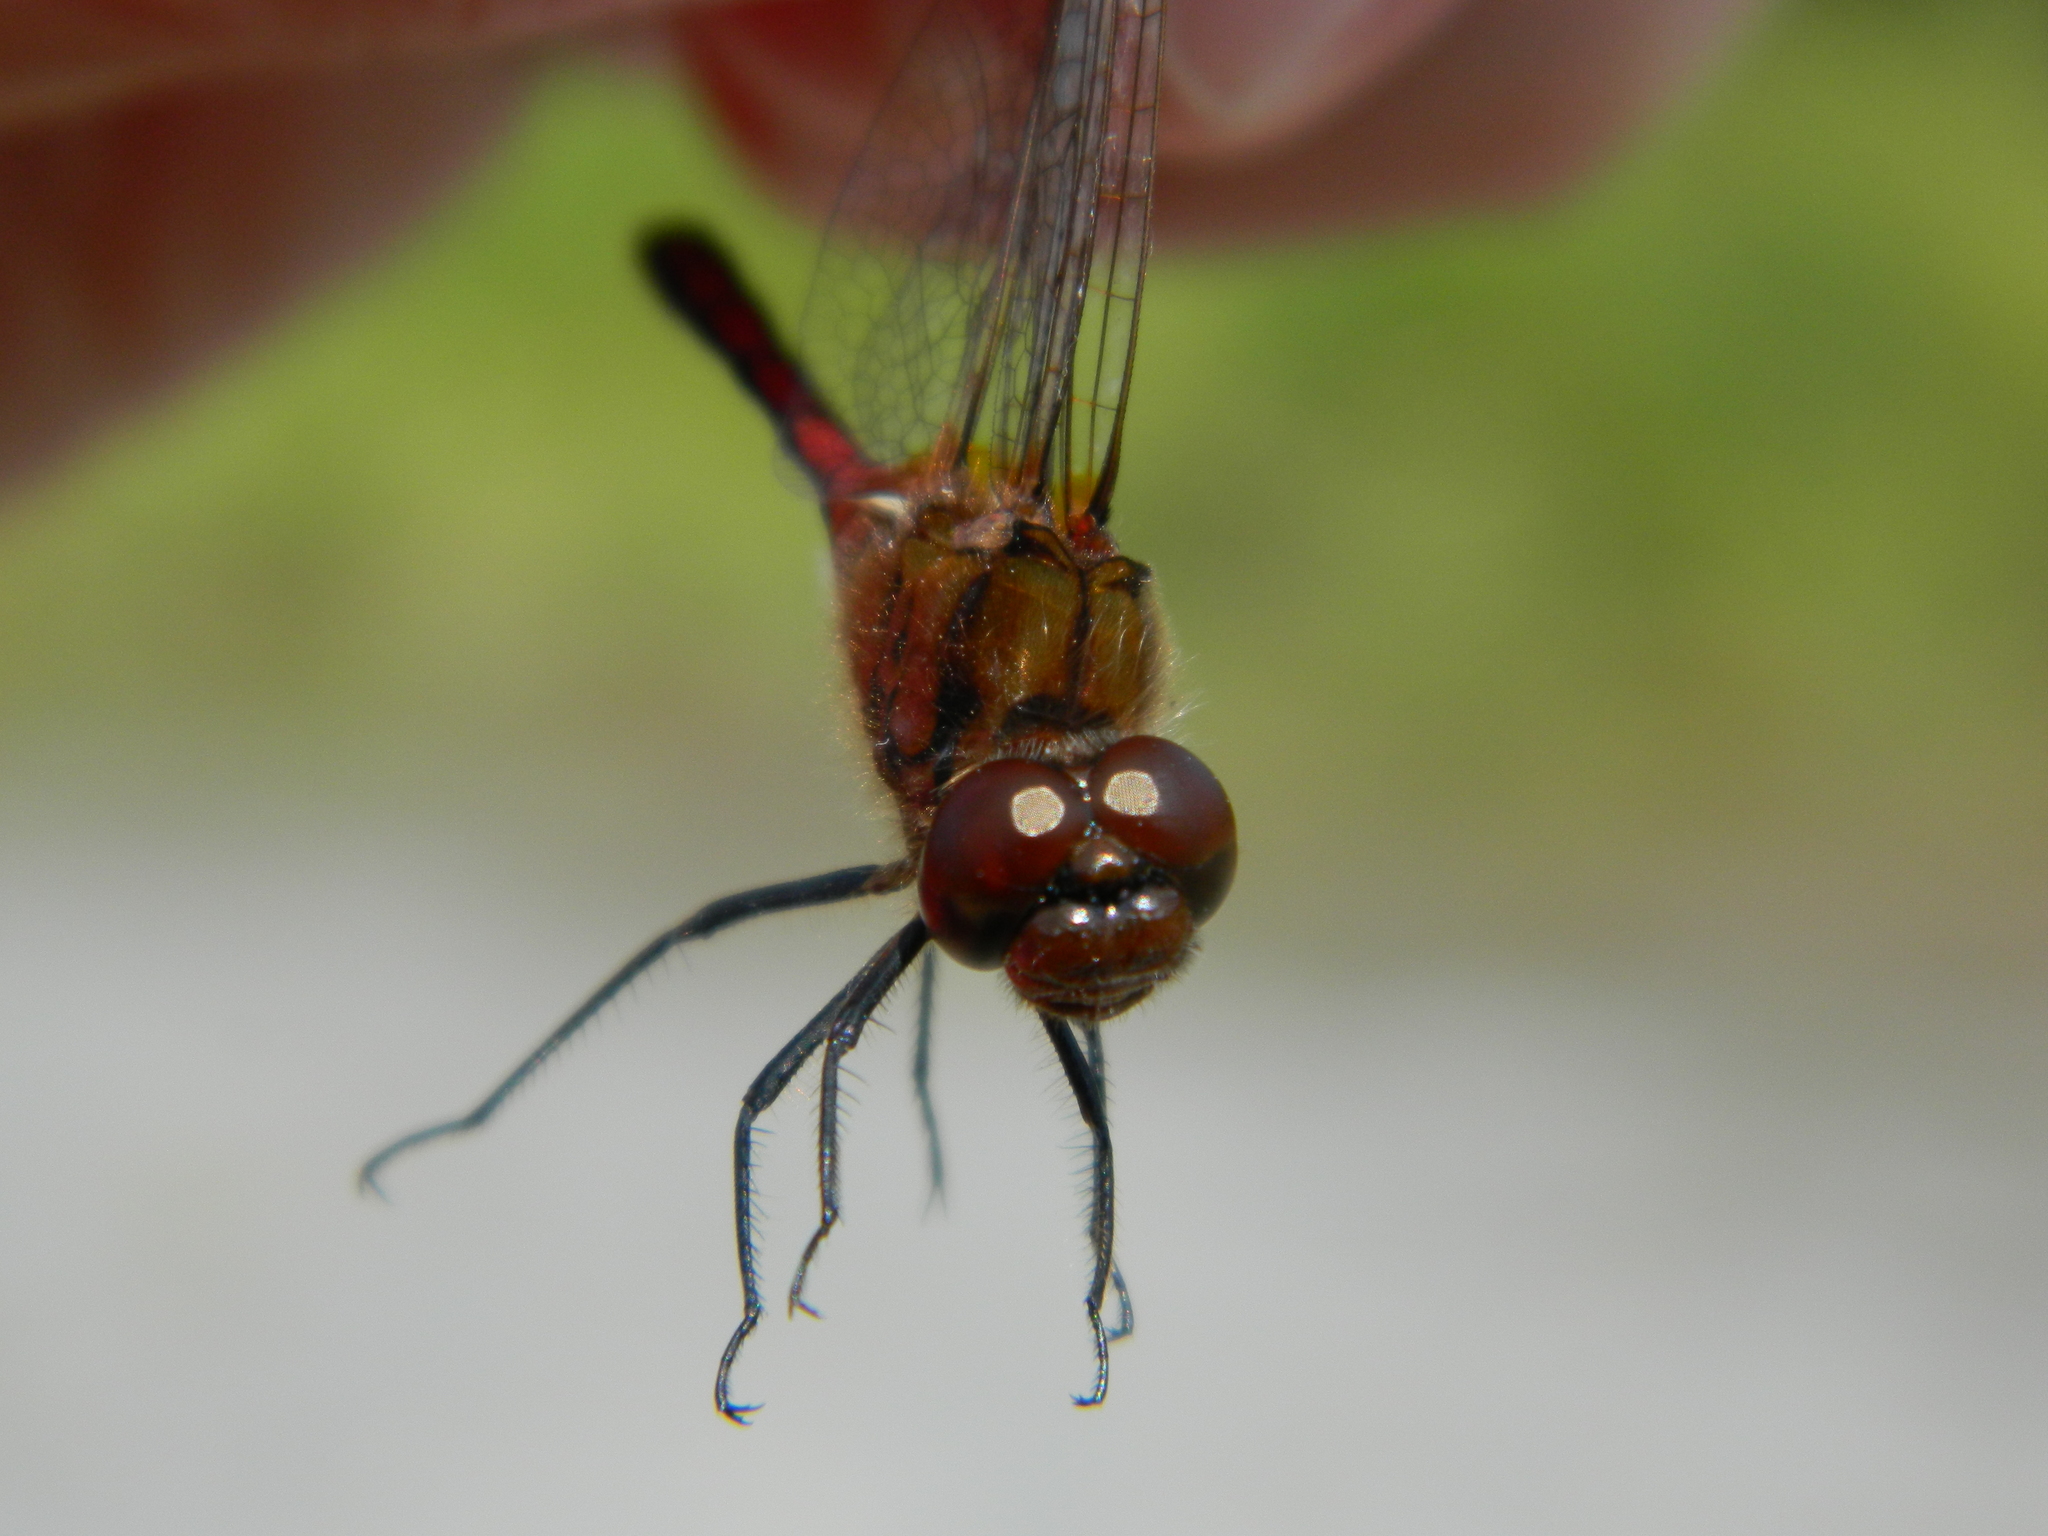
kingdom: Animalia
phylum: Arthropoda
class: Insecta
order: Odonata
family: Libellulidae
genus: Sympetrum
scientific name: Sympetrum costiferum
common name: Saffron-winged meadowhawk
